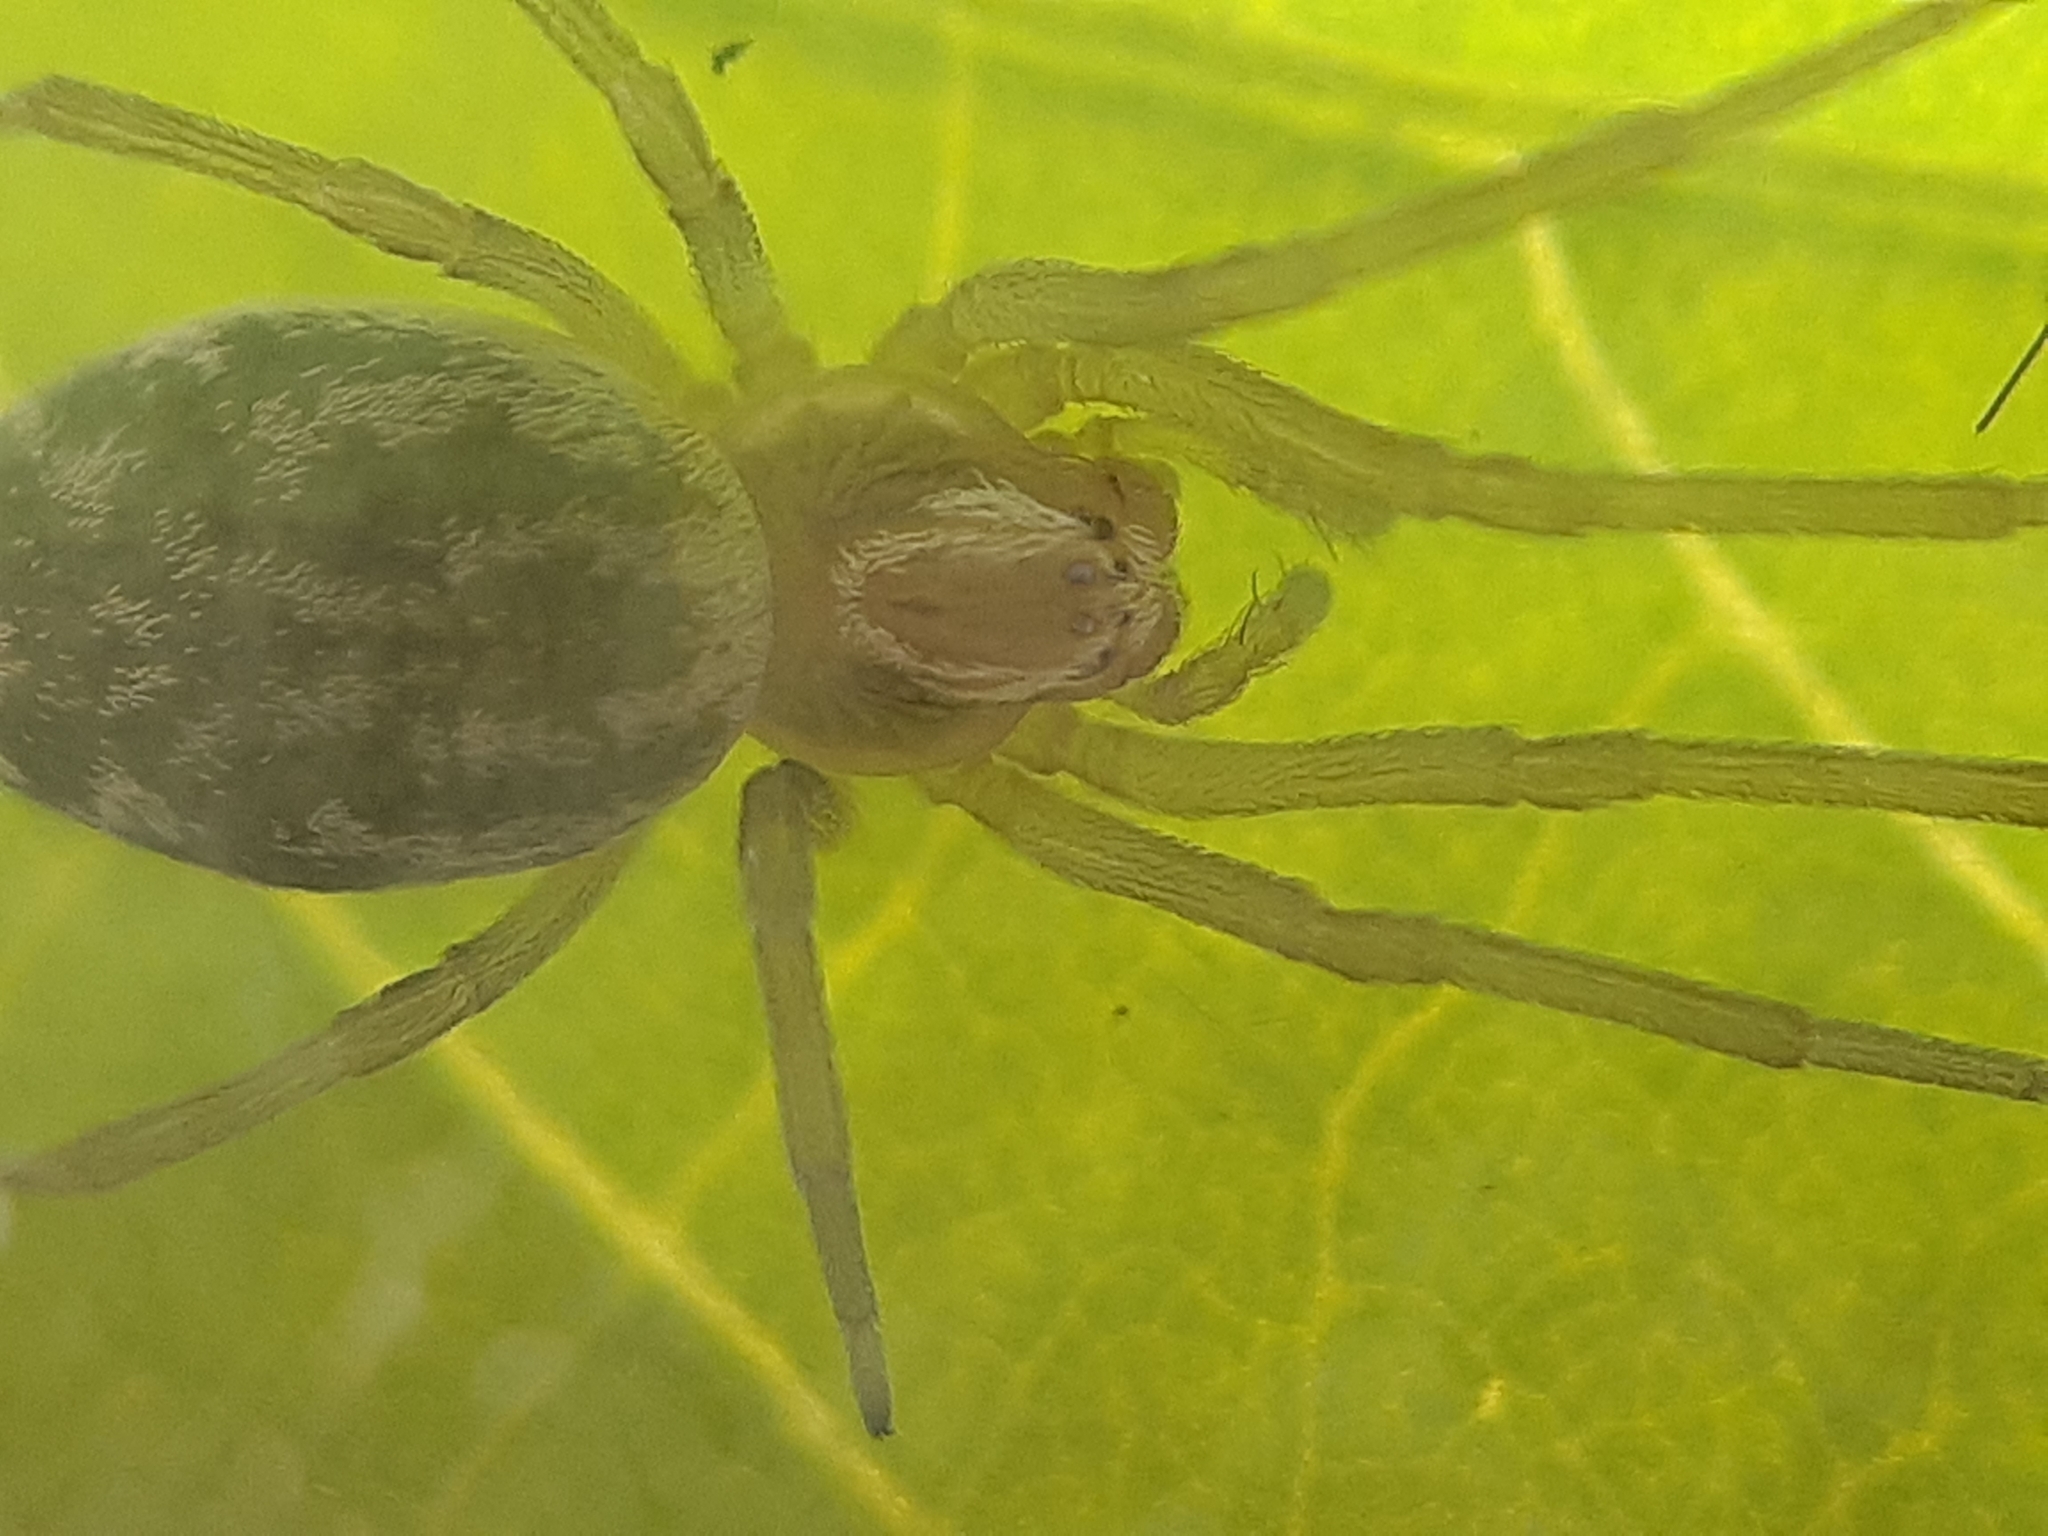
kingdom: Animalia
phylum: Arthropoda
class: Arachnida
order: Araneae
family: Dictynidae
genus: Nigma
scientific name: Nigma walckenaeri
